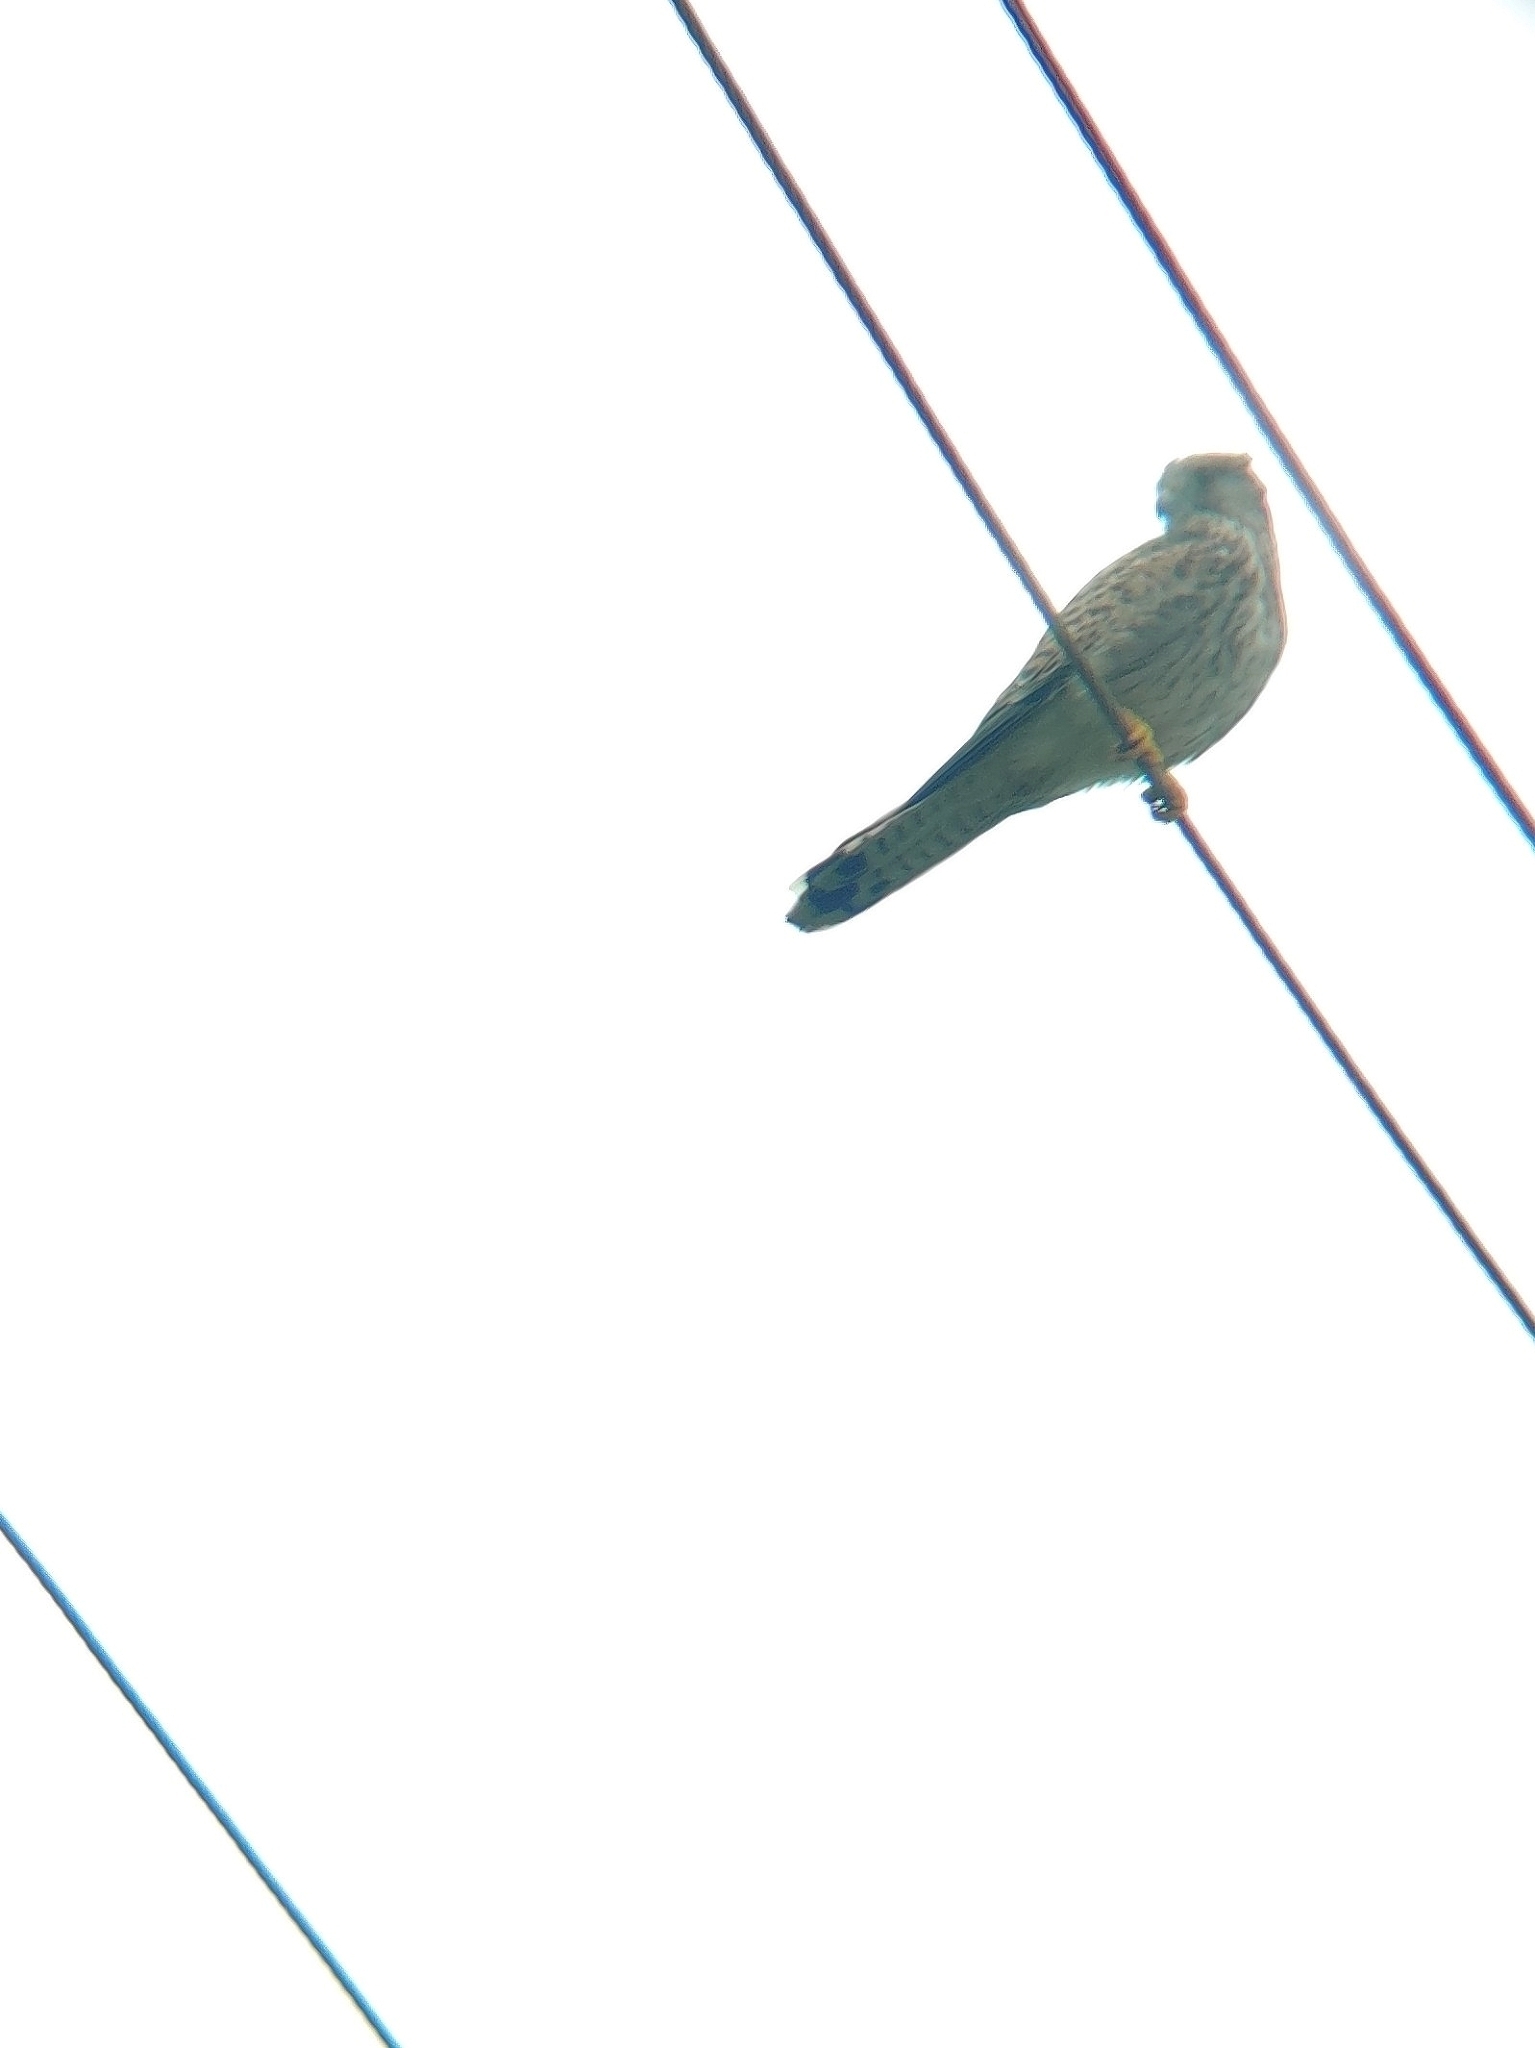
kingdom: Animalia
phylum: Chordata
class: Aves
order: Falconiformes
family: Falconidae
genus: Falco
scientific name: Falco tinnunculus
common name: Common kestrel
